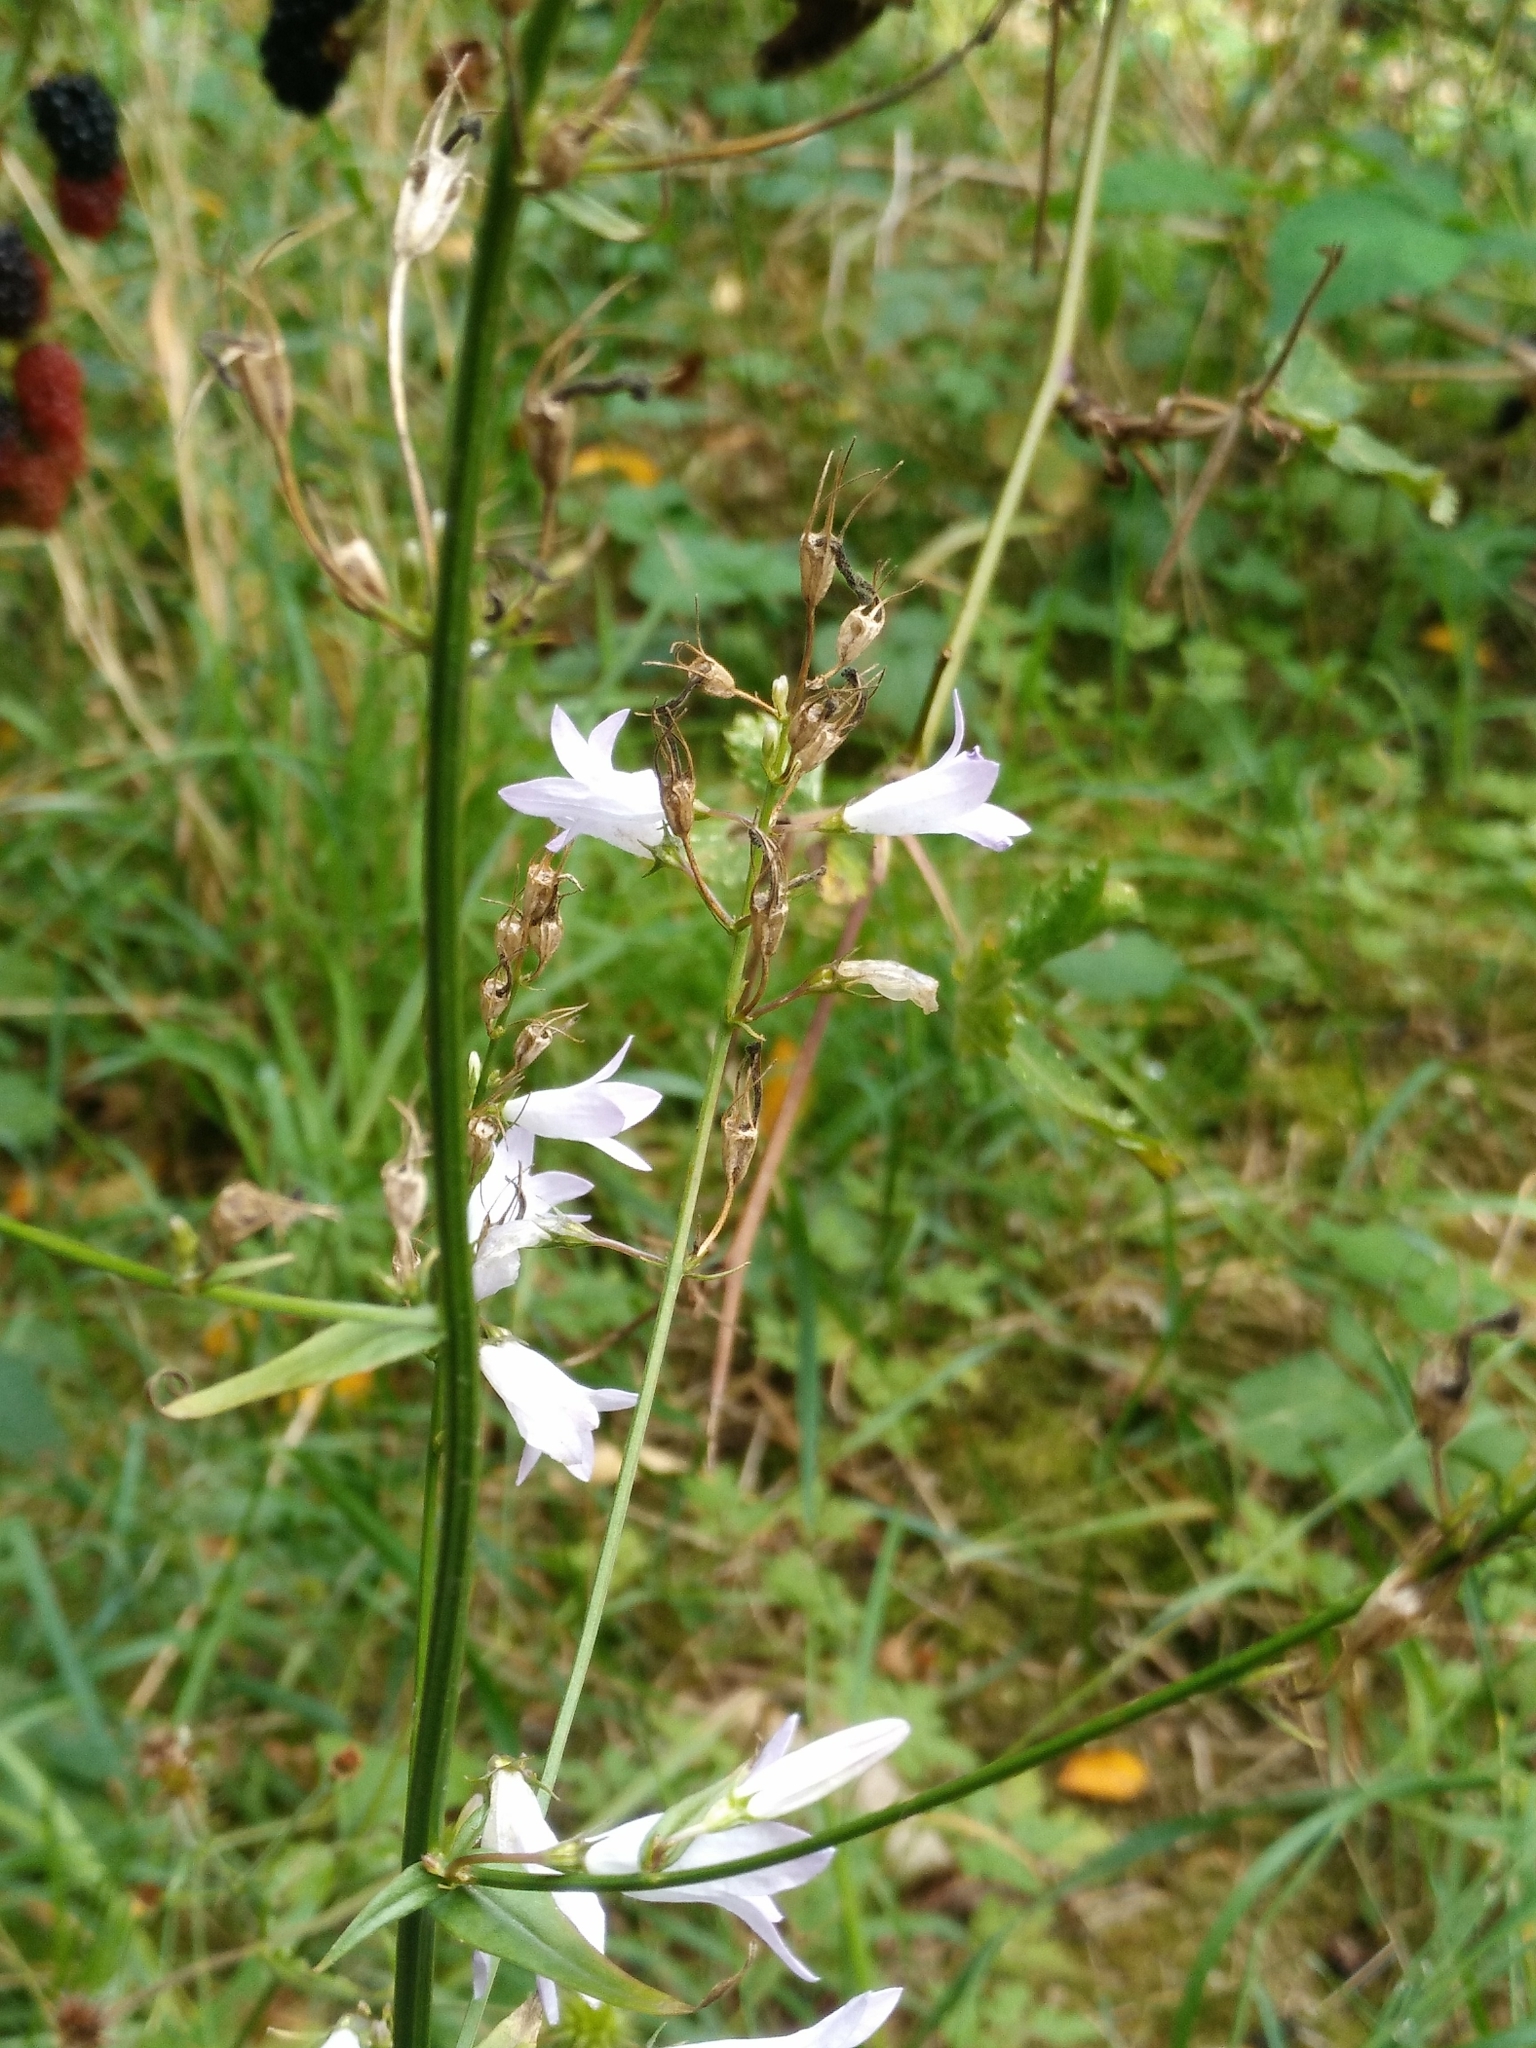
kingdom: Plantae
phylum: Tracheophyta
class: Magnoliopsida
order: Asterales
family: Campanulaceae
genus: Campanula
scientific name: Campanula rapunculus
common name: Rampion bellflower
